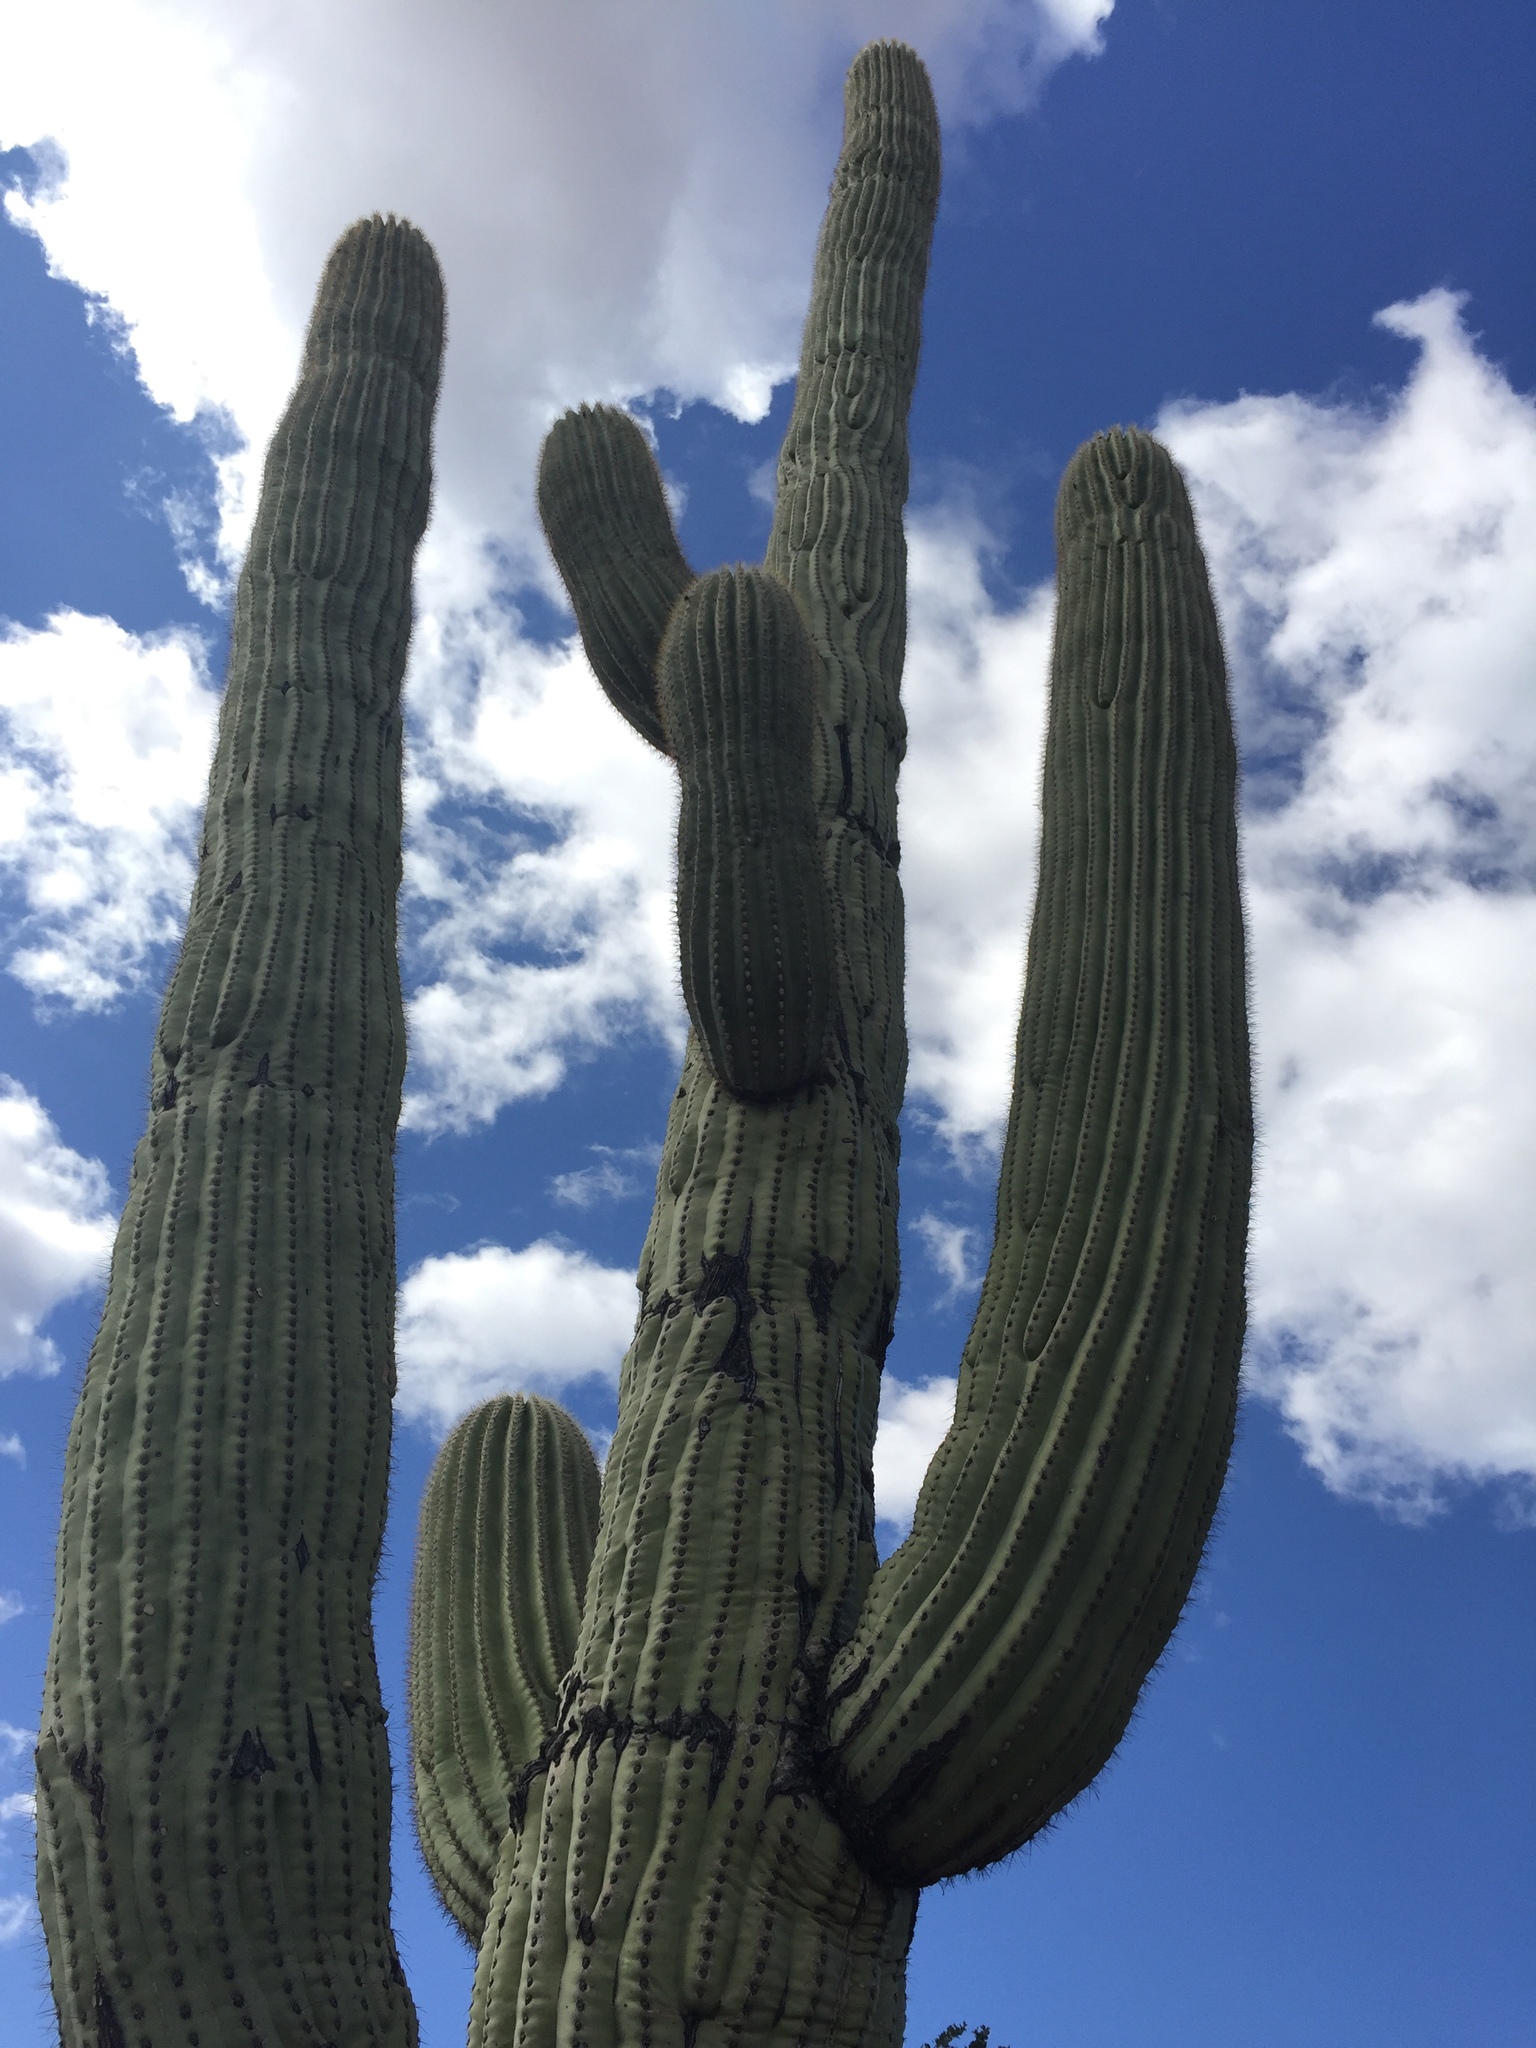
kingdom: Plantae
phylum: Tracheophyta
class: Magnoliopsida
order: Caryophyllales
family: Cactaceae
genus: Carnegiea
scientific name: Carnegiea gigantea
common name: Saguaro
